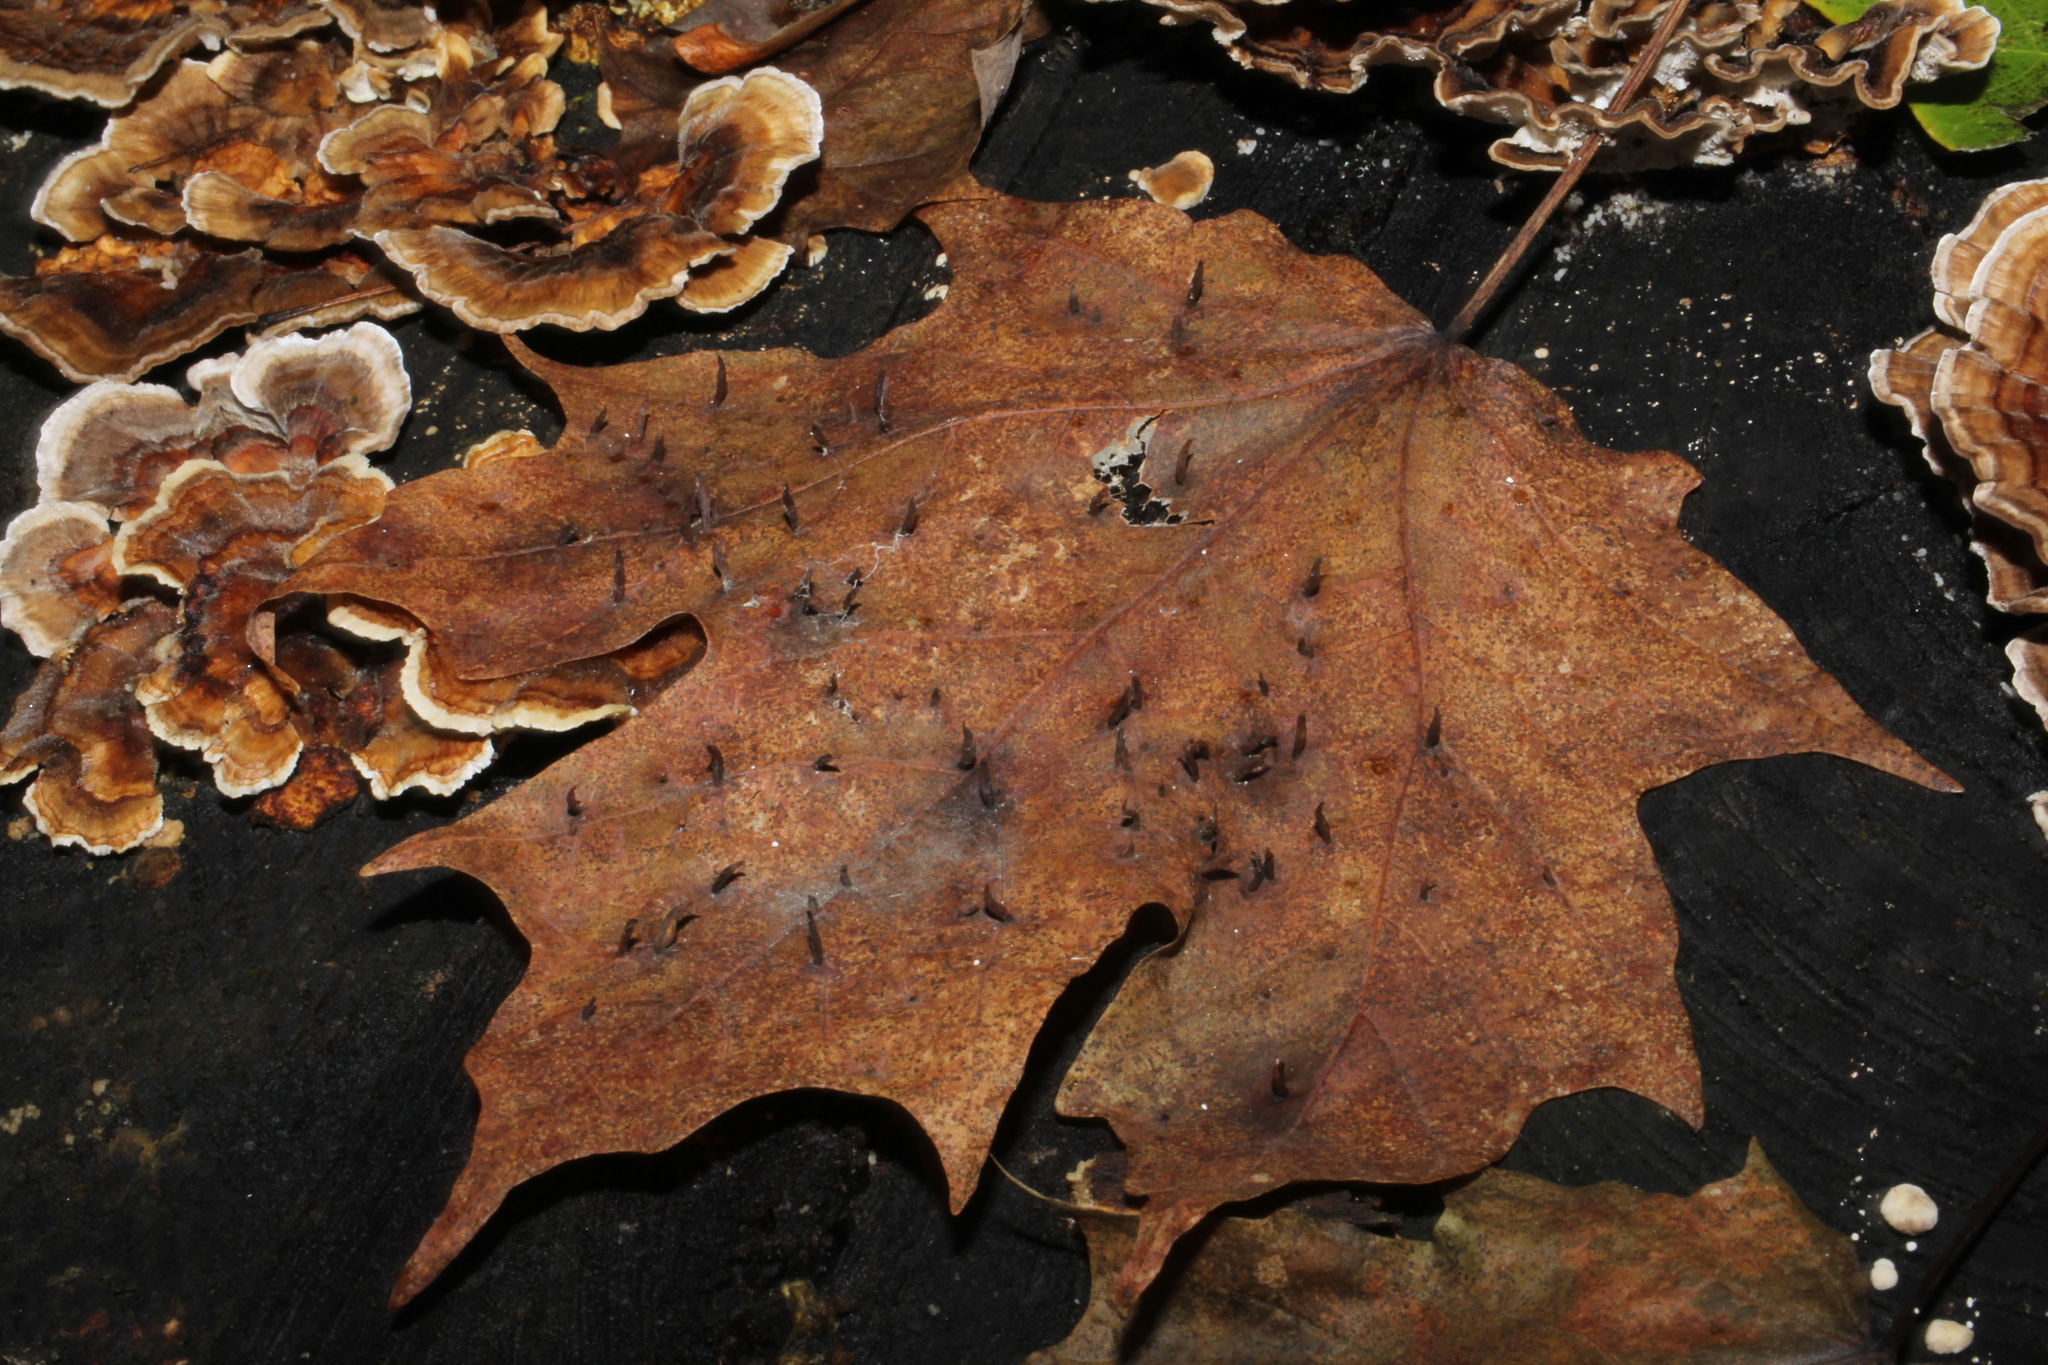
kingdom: Animalia
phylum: Arthropoda
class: Arachnida
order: Trombidiformes
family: Eriophyidae
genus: Vasates
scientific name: Vasates aceriscrumena
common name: Maple spindle gall mite
